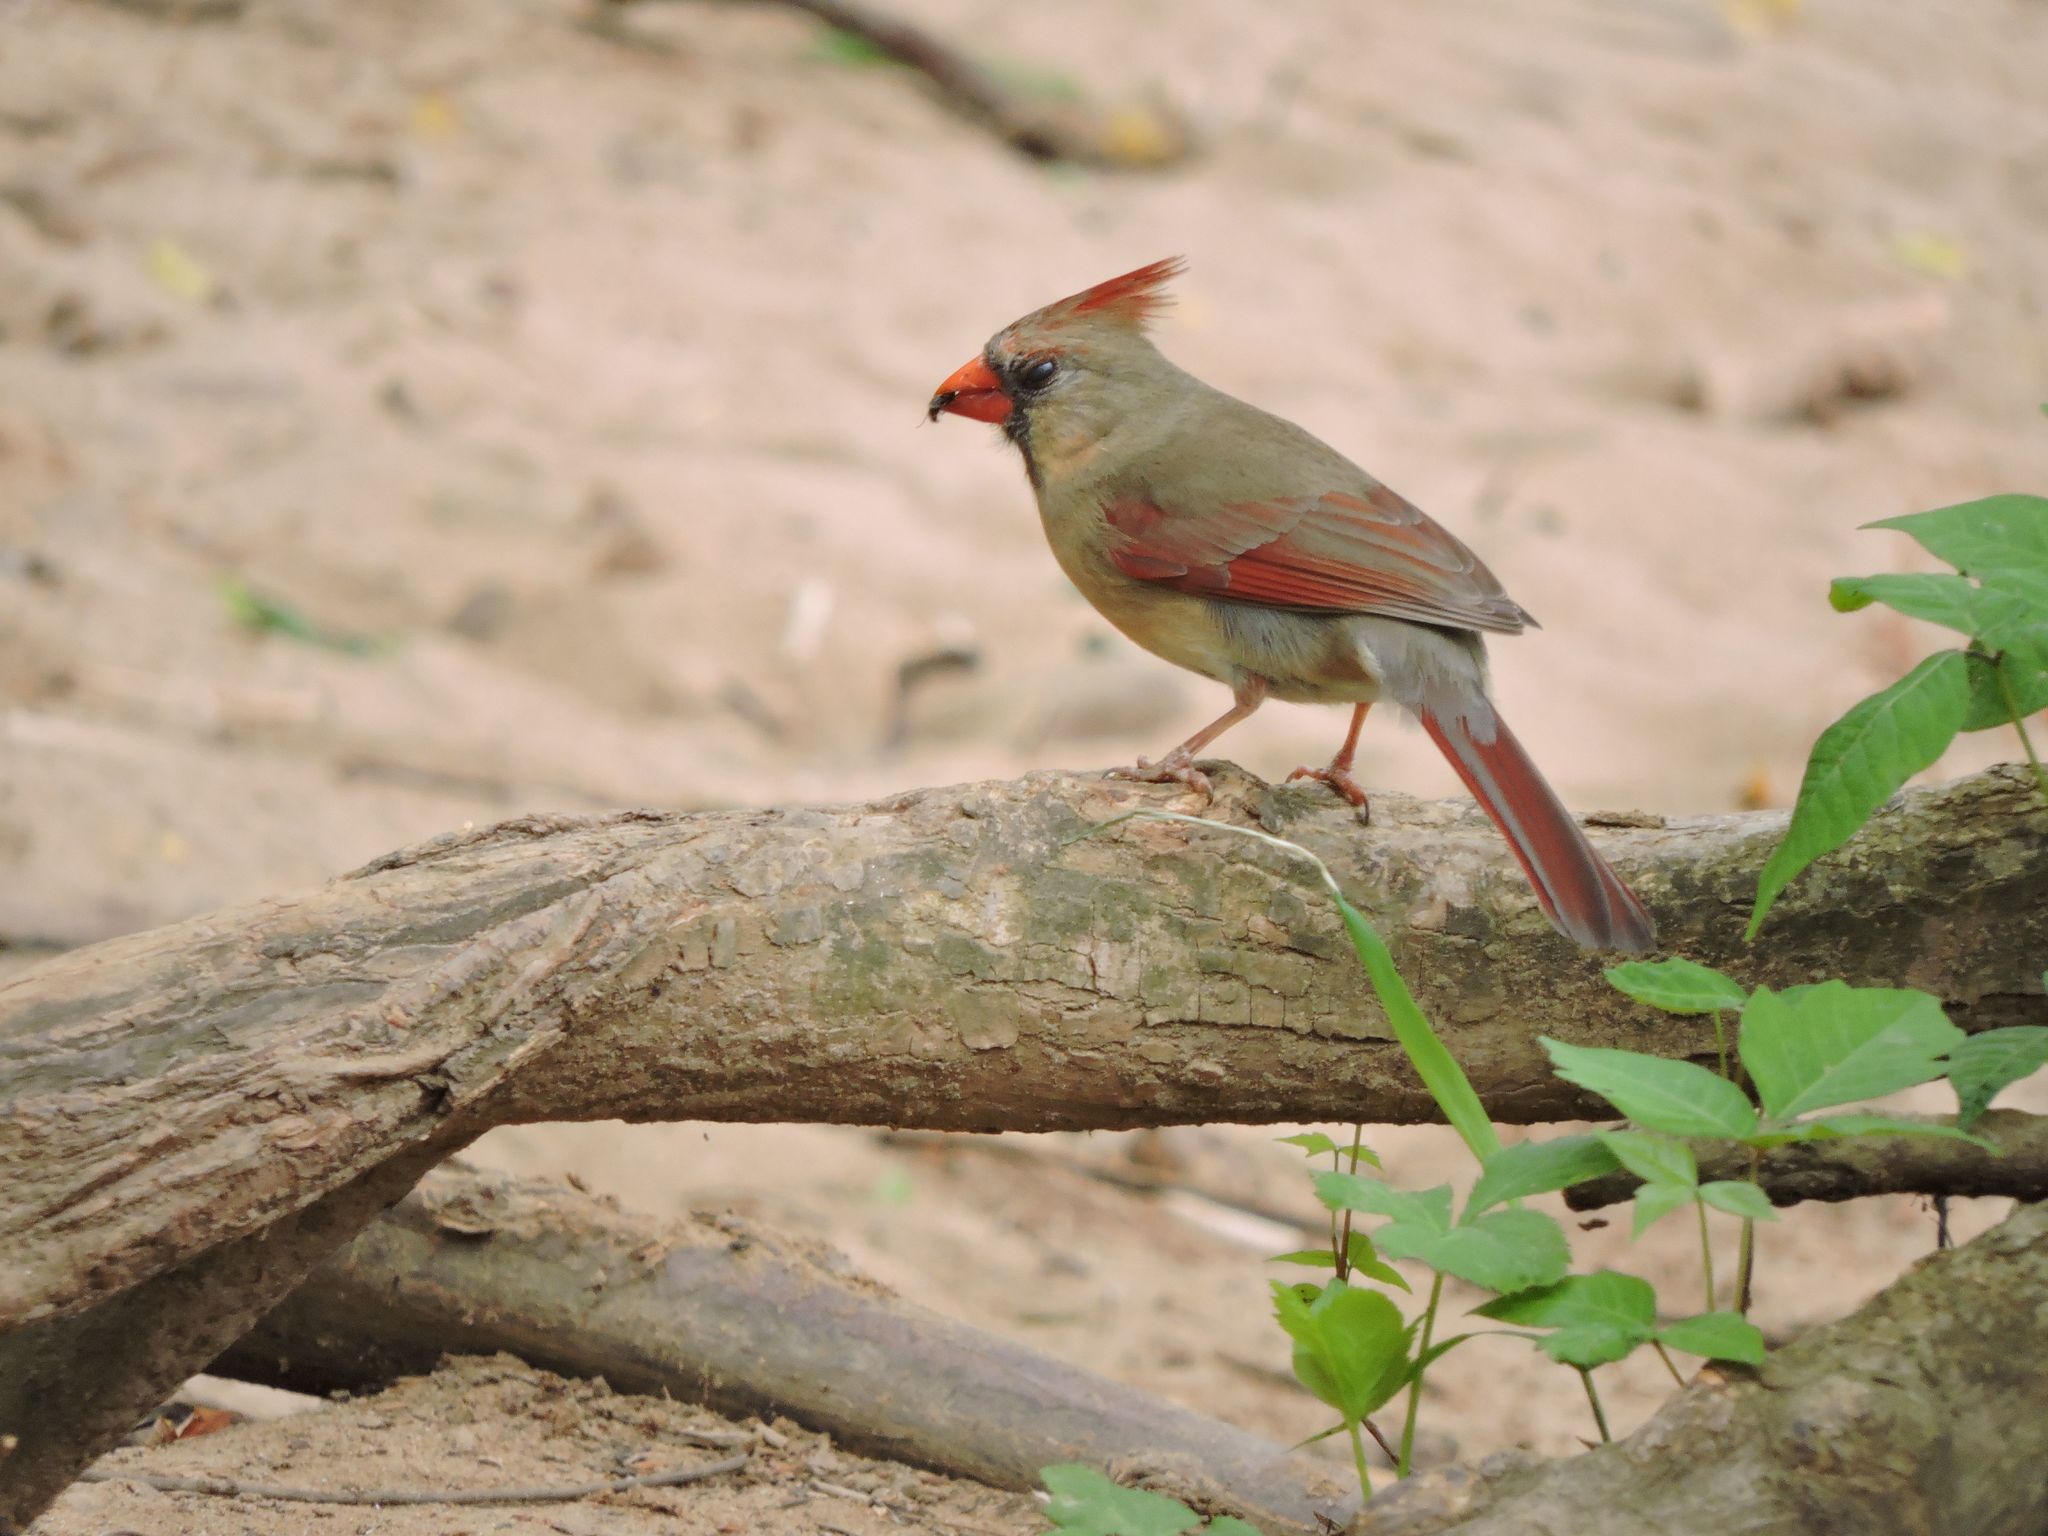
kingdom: Animalia
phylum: Chordata
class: Aves
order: Passeriformes
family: Cardinalidae
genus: Cardinalis
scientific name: Cardinalis cardinalis
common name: Northern cardinal
